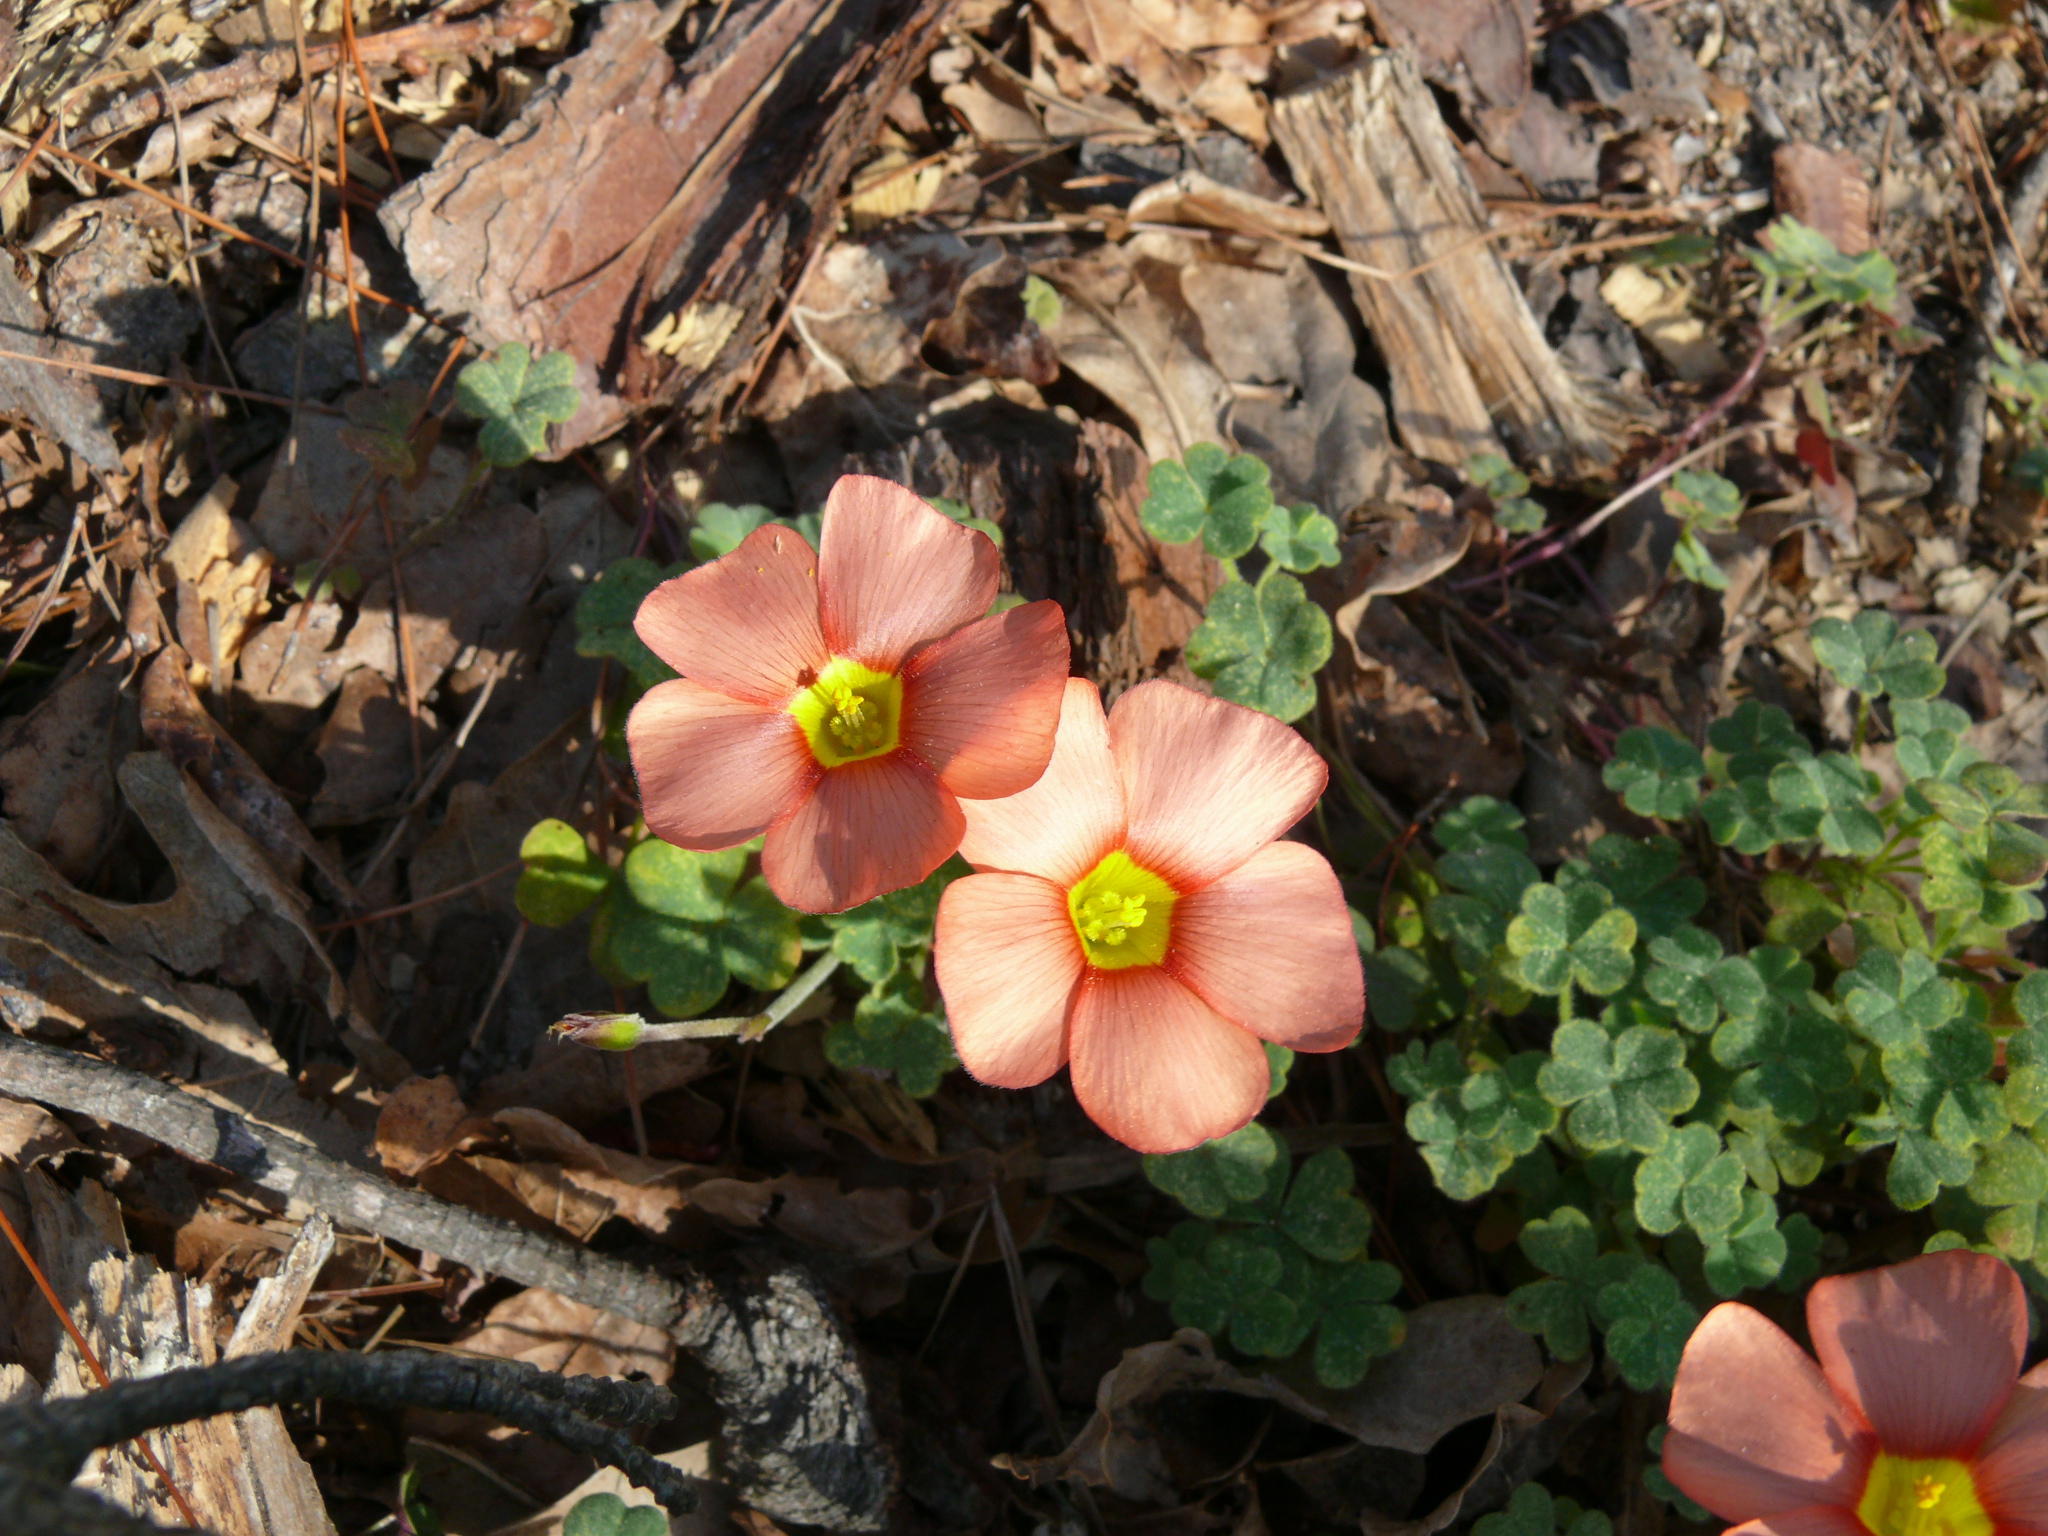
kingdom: Plantae
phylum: Tracheophyta
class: Magnoliopsida
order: Oxalidales
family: Oxalidaceae
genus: Oxalis
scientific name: Oxalis obtusa
